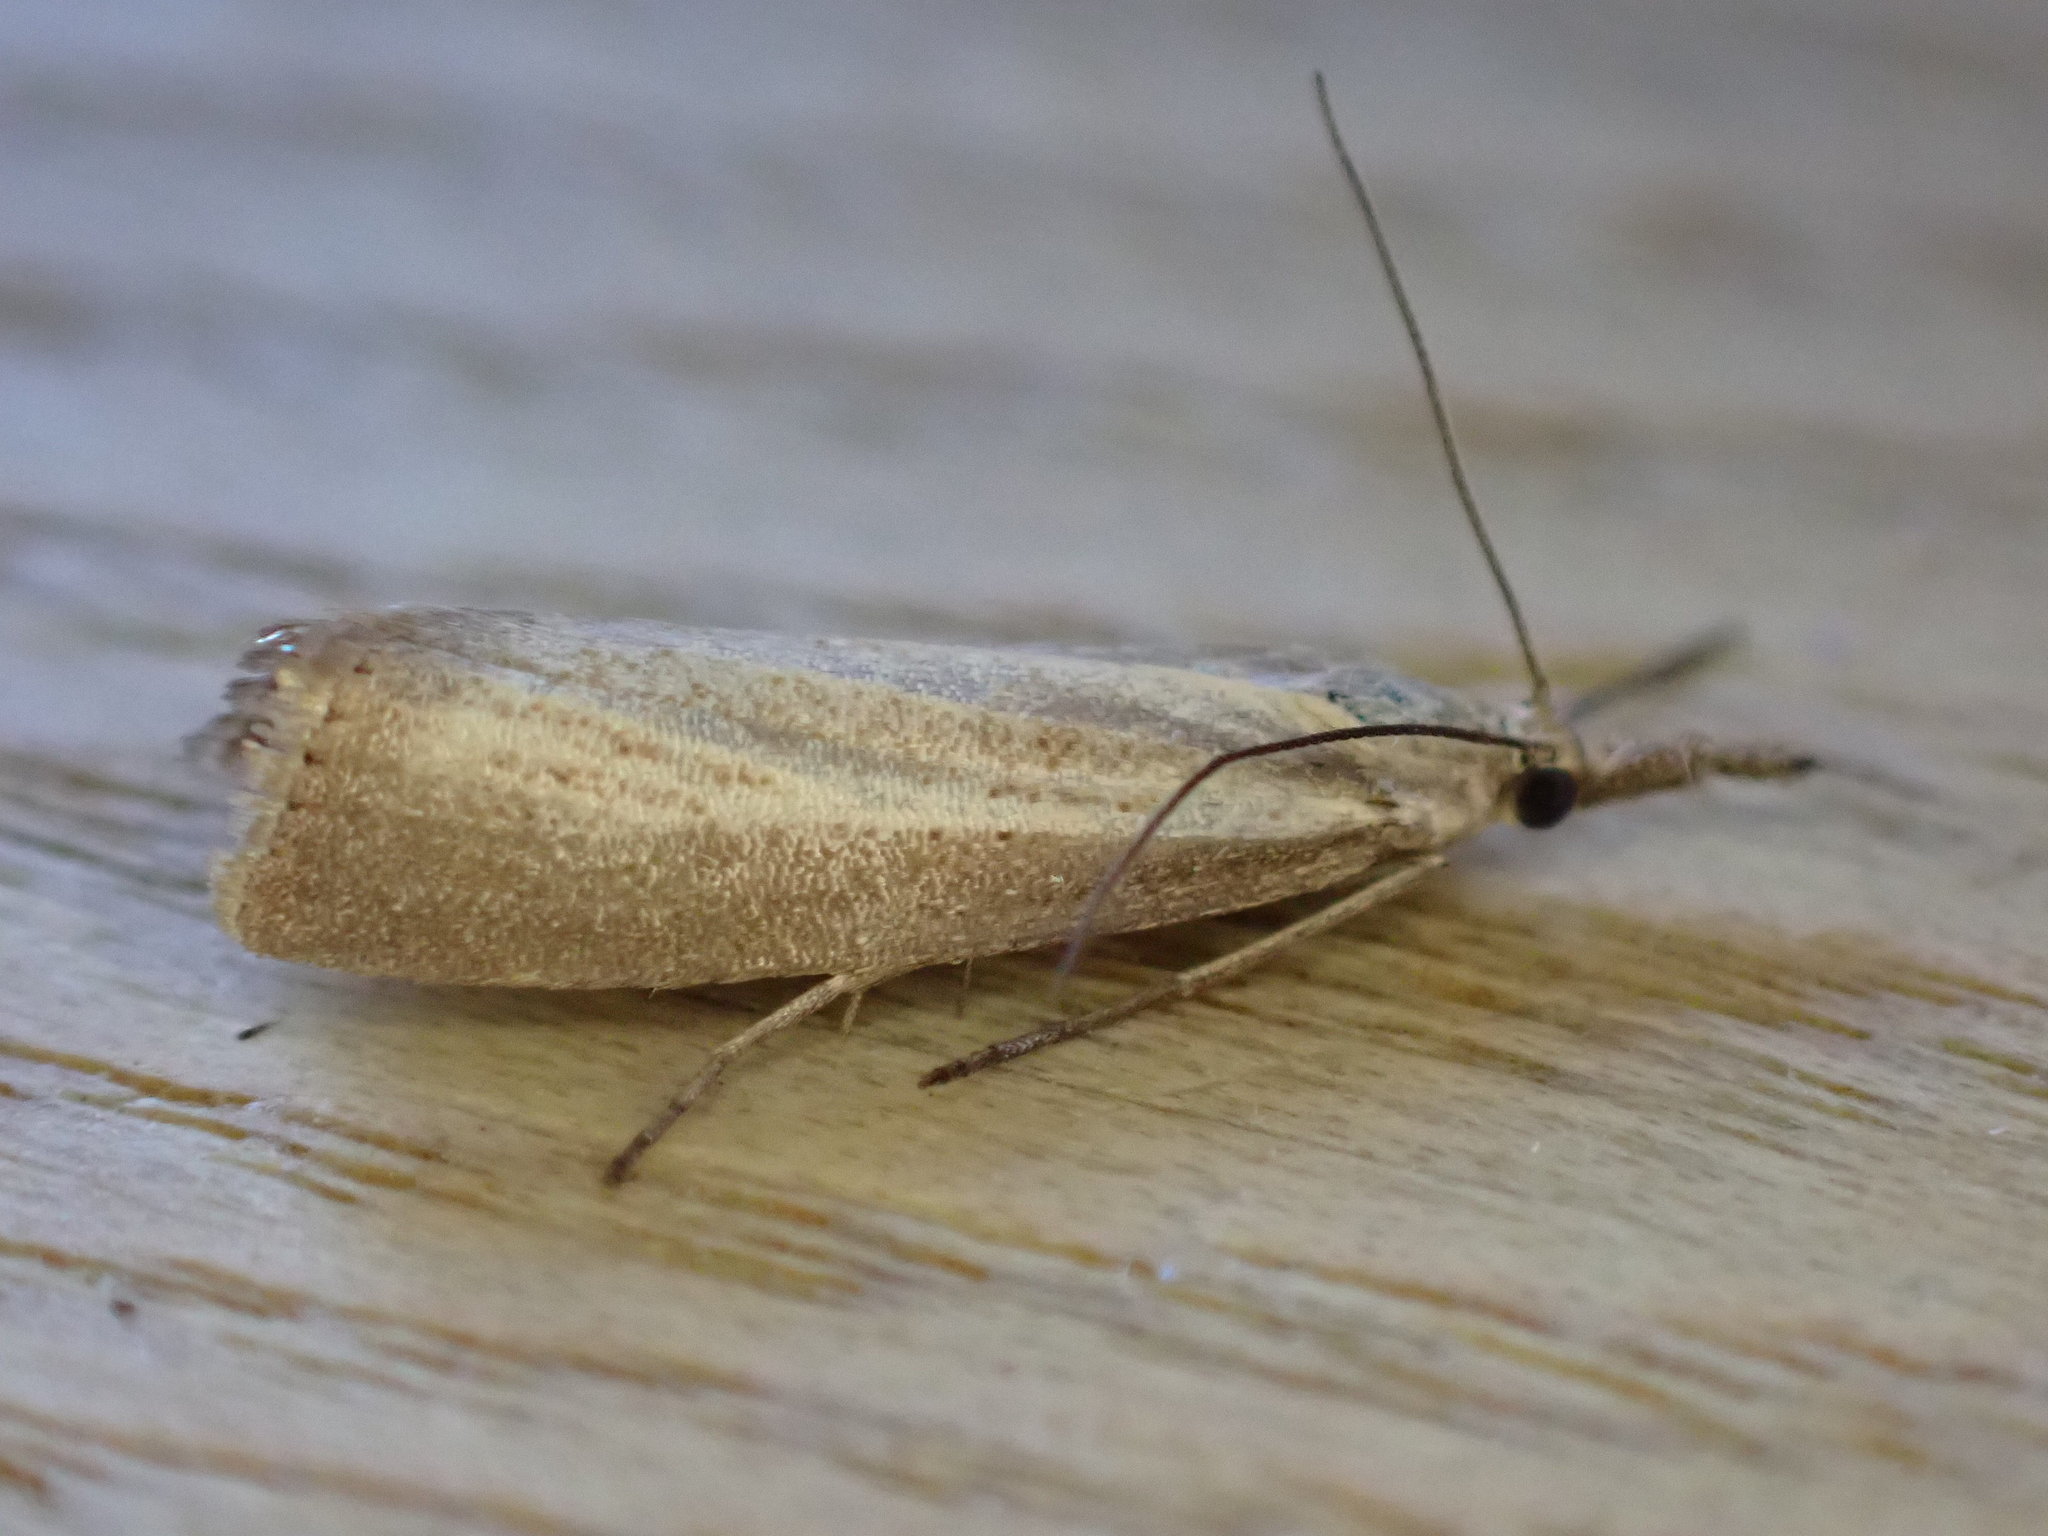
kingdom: Animalia
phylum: Arthropoda
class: Insecta
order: Lepidoptera
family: Crambidae
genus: Agriphila
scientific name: Agriphila straminella
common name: Straw grass-veneer
